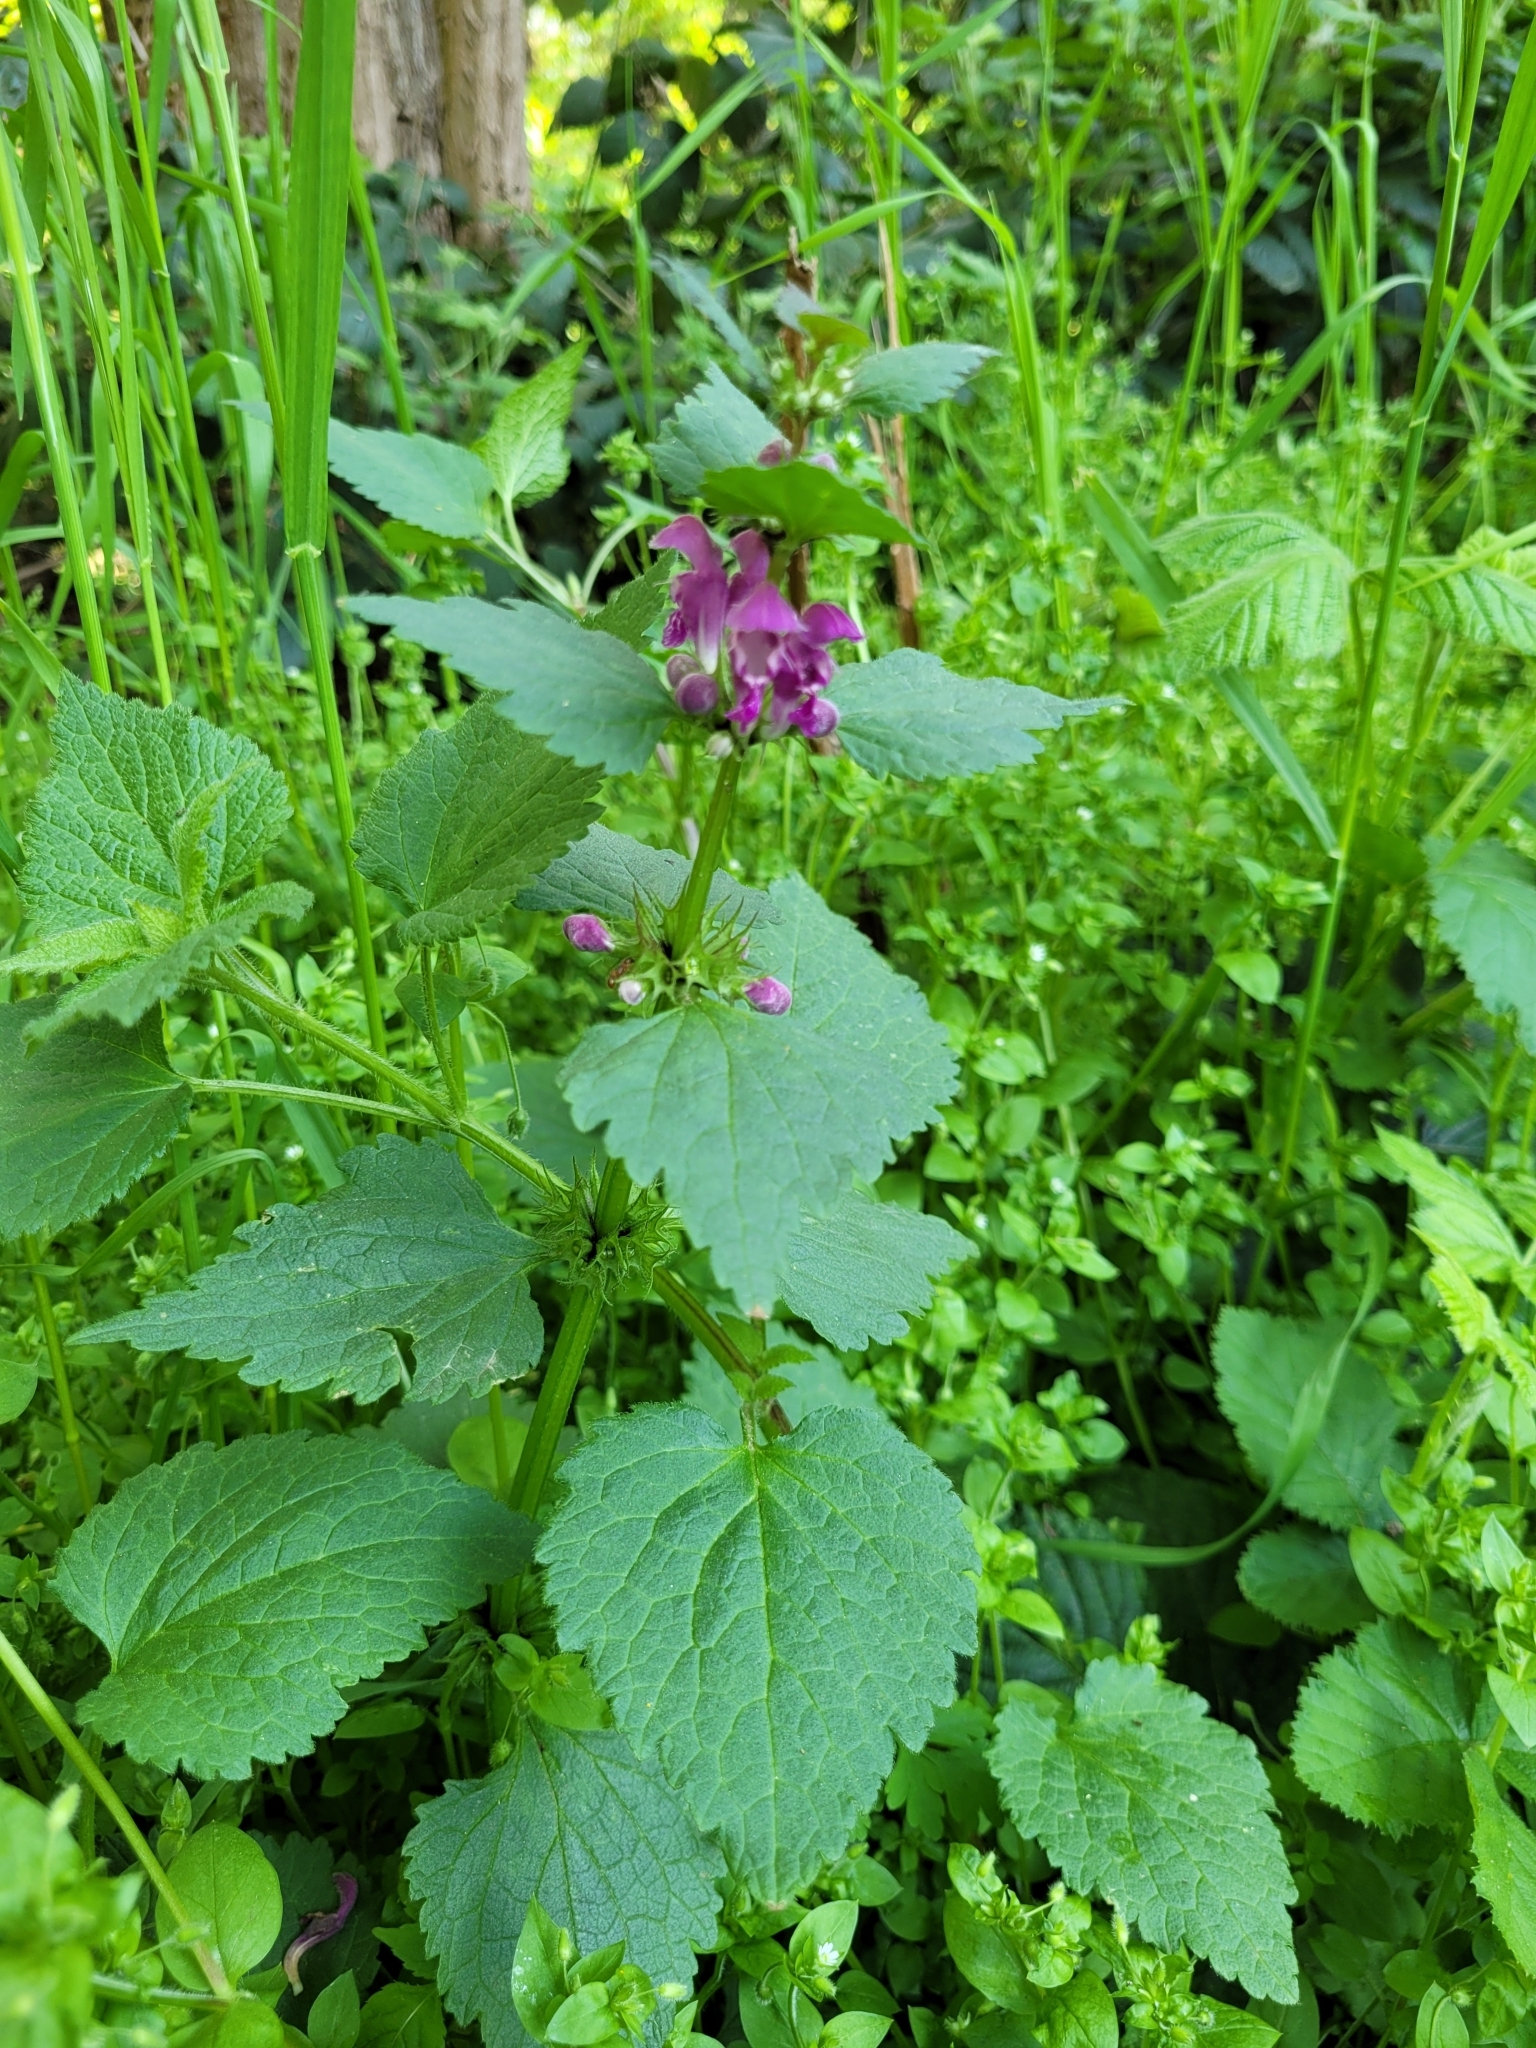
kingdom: Plantae
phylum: Tracheophyta
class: Magnoliopsida
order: Lamiales
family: Lamiaceae
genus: Lamium
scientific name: Lamium maculatum
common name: Spotted dead-nettle
